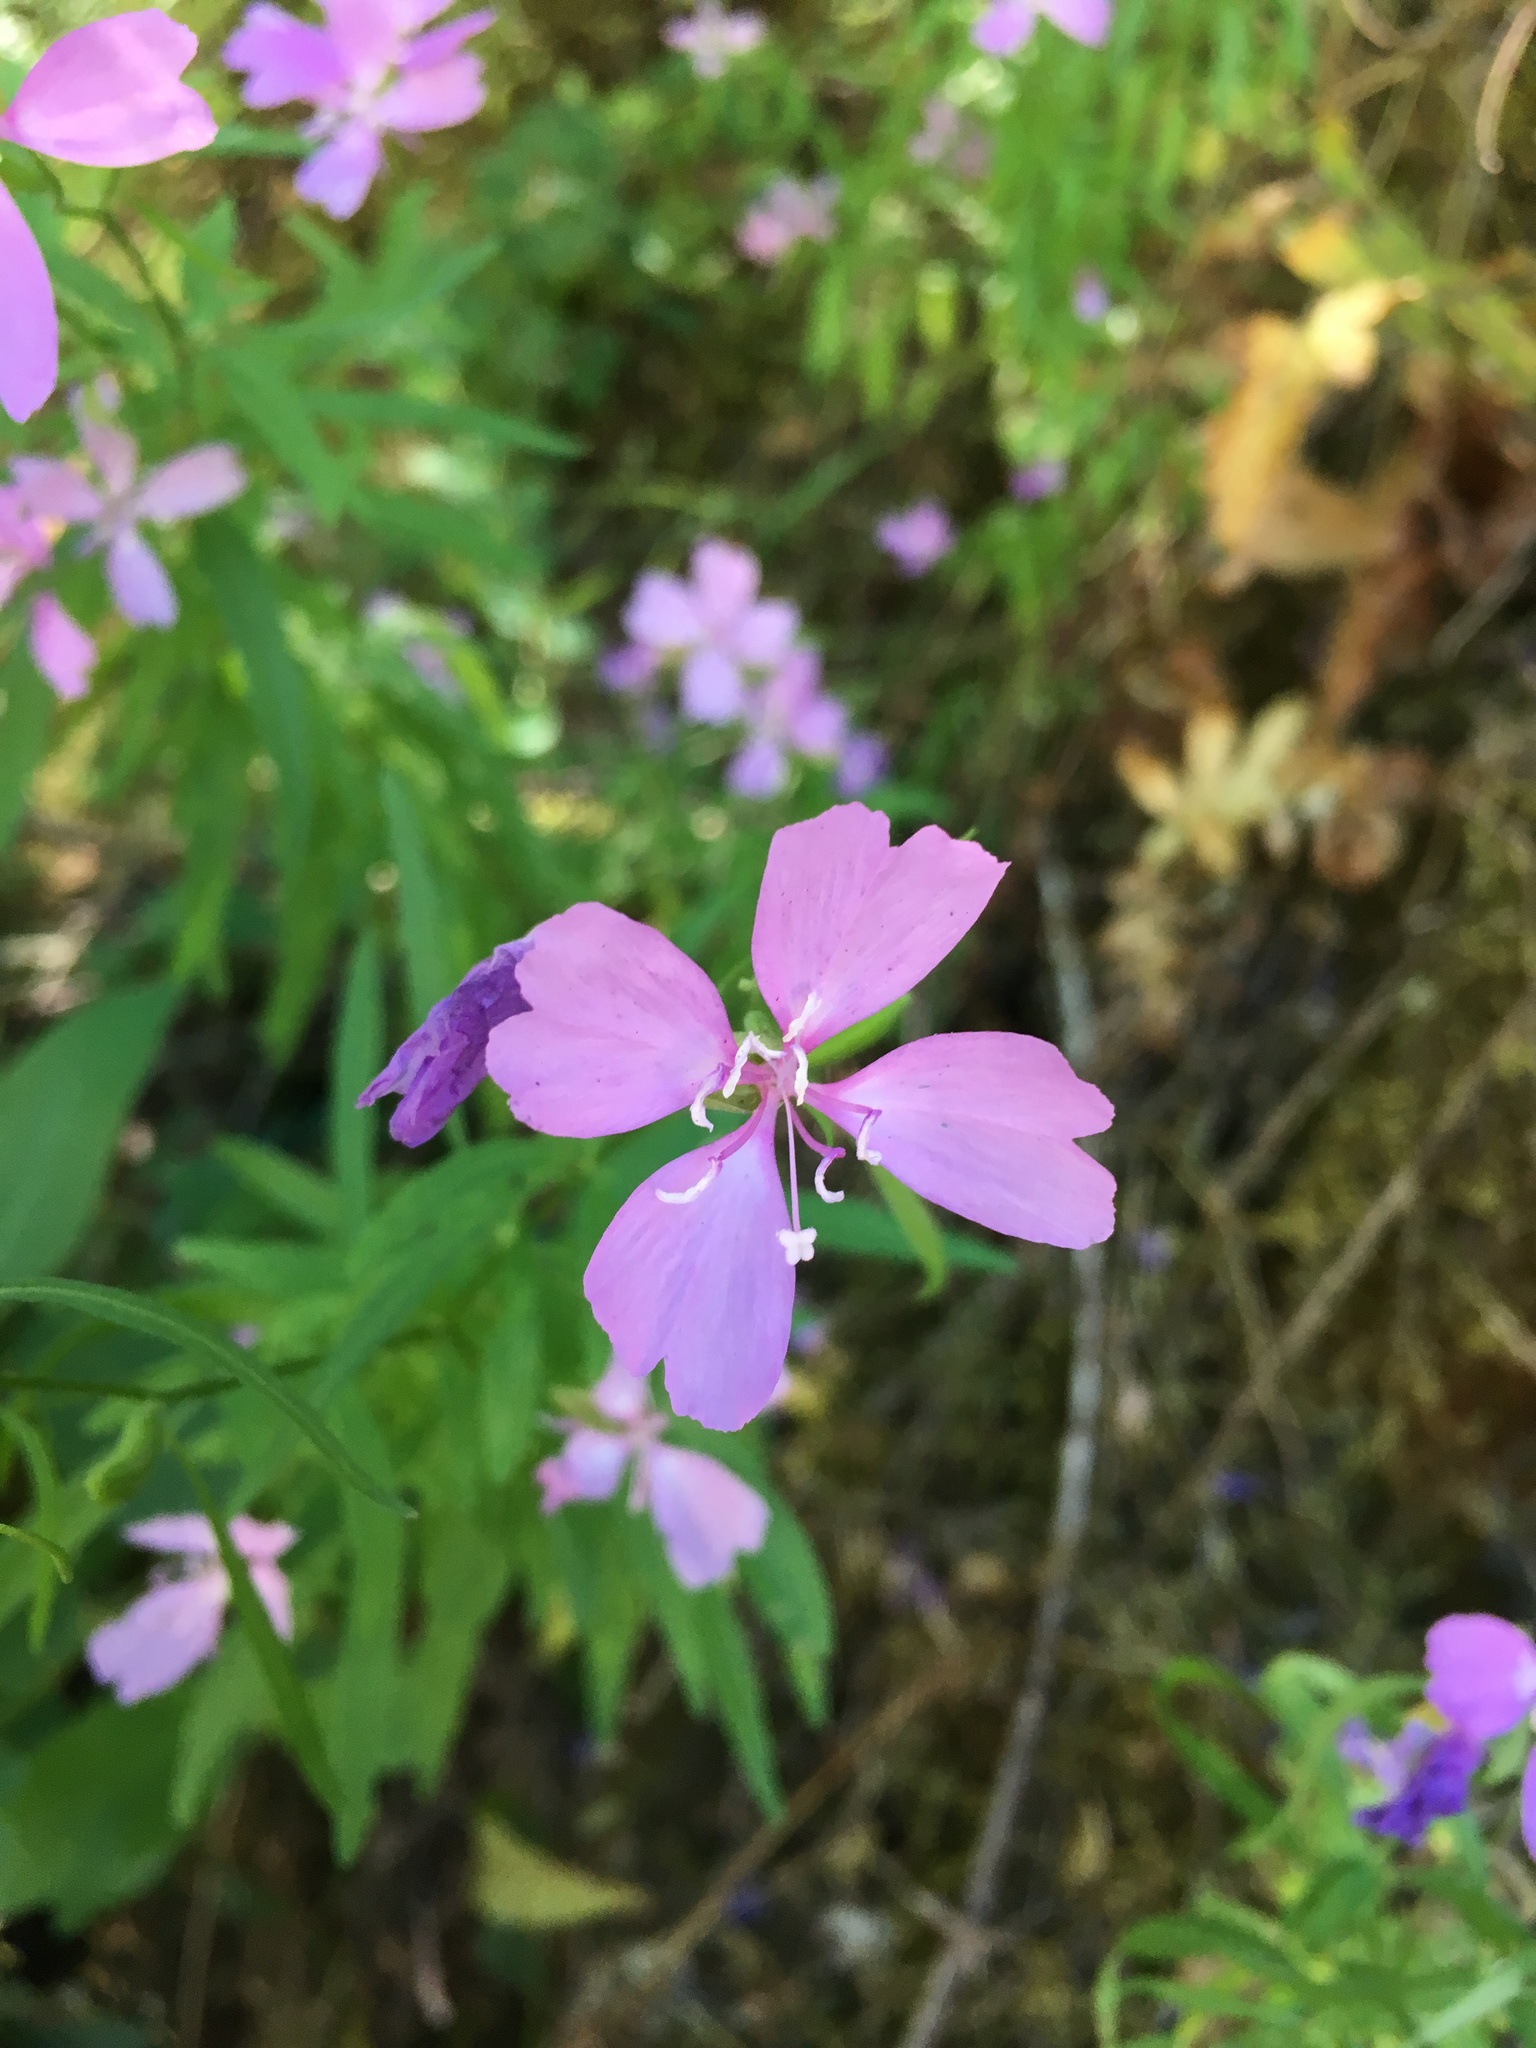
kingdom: Plantae
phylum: Tracheophyta
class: Magnoliopsida
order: Myrtales
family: Onagraceae
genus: Clarkia
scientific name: Clarkia biloba
